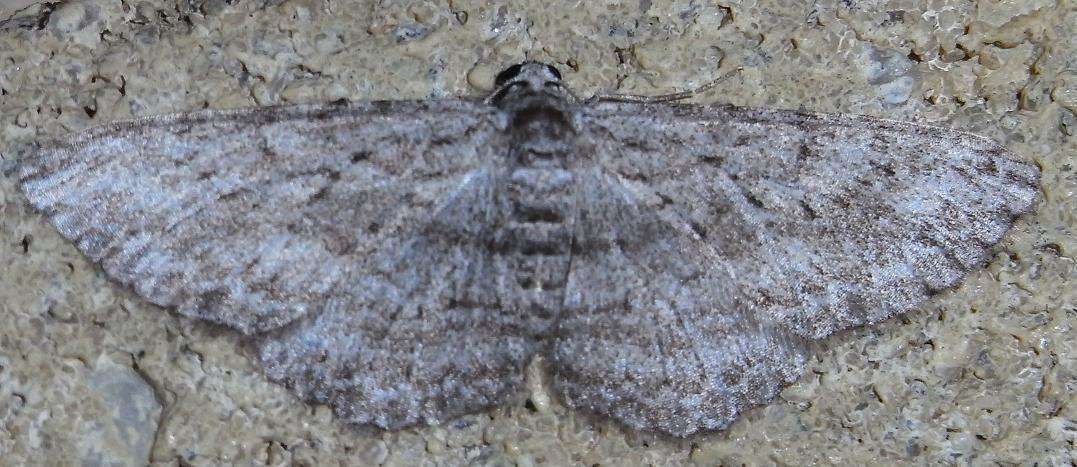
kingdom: Animalia
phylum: Arthropoda
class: Insecta
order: Lepidoptera
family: Geometridae
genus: Phelotis
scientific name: Phelotis cognata
